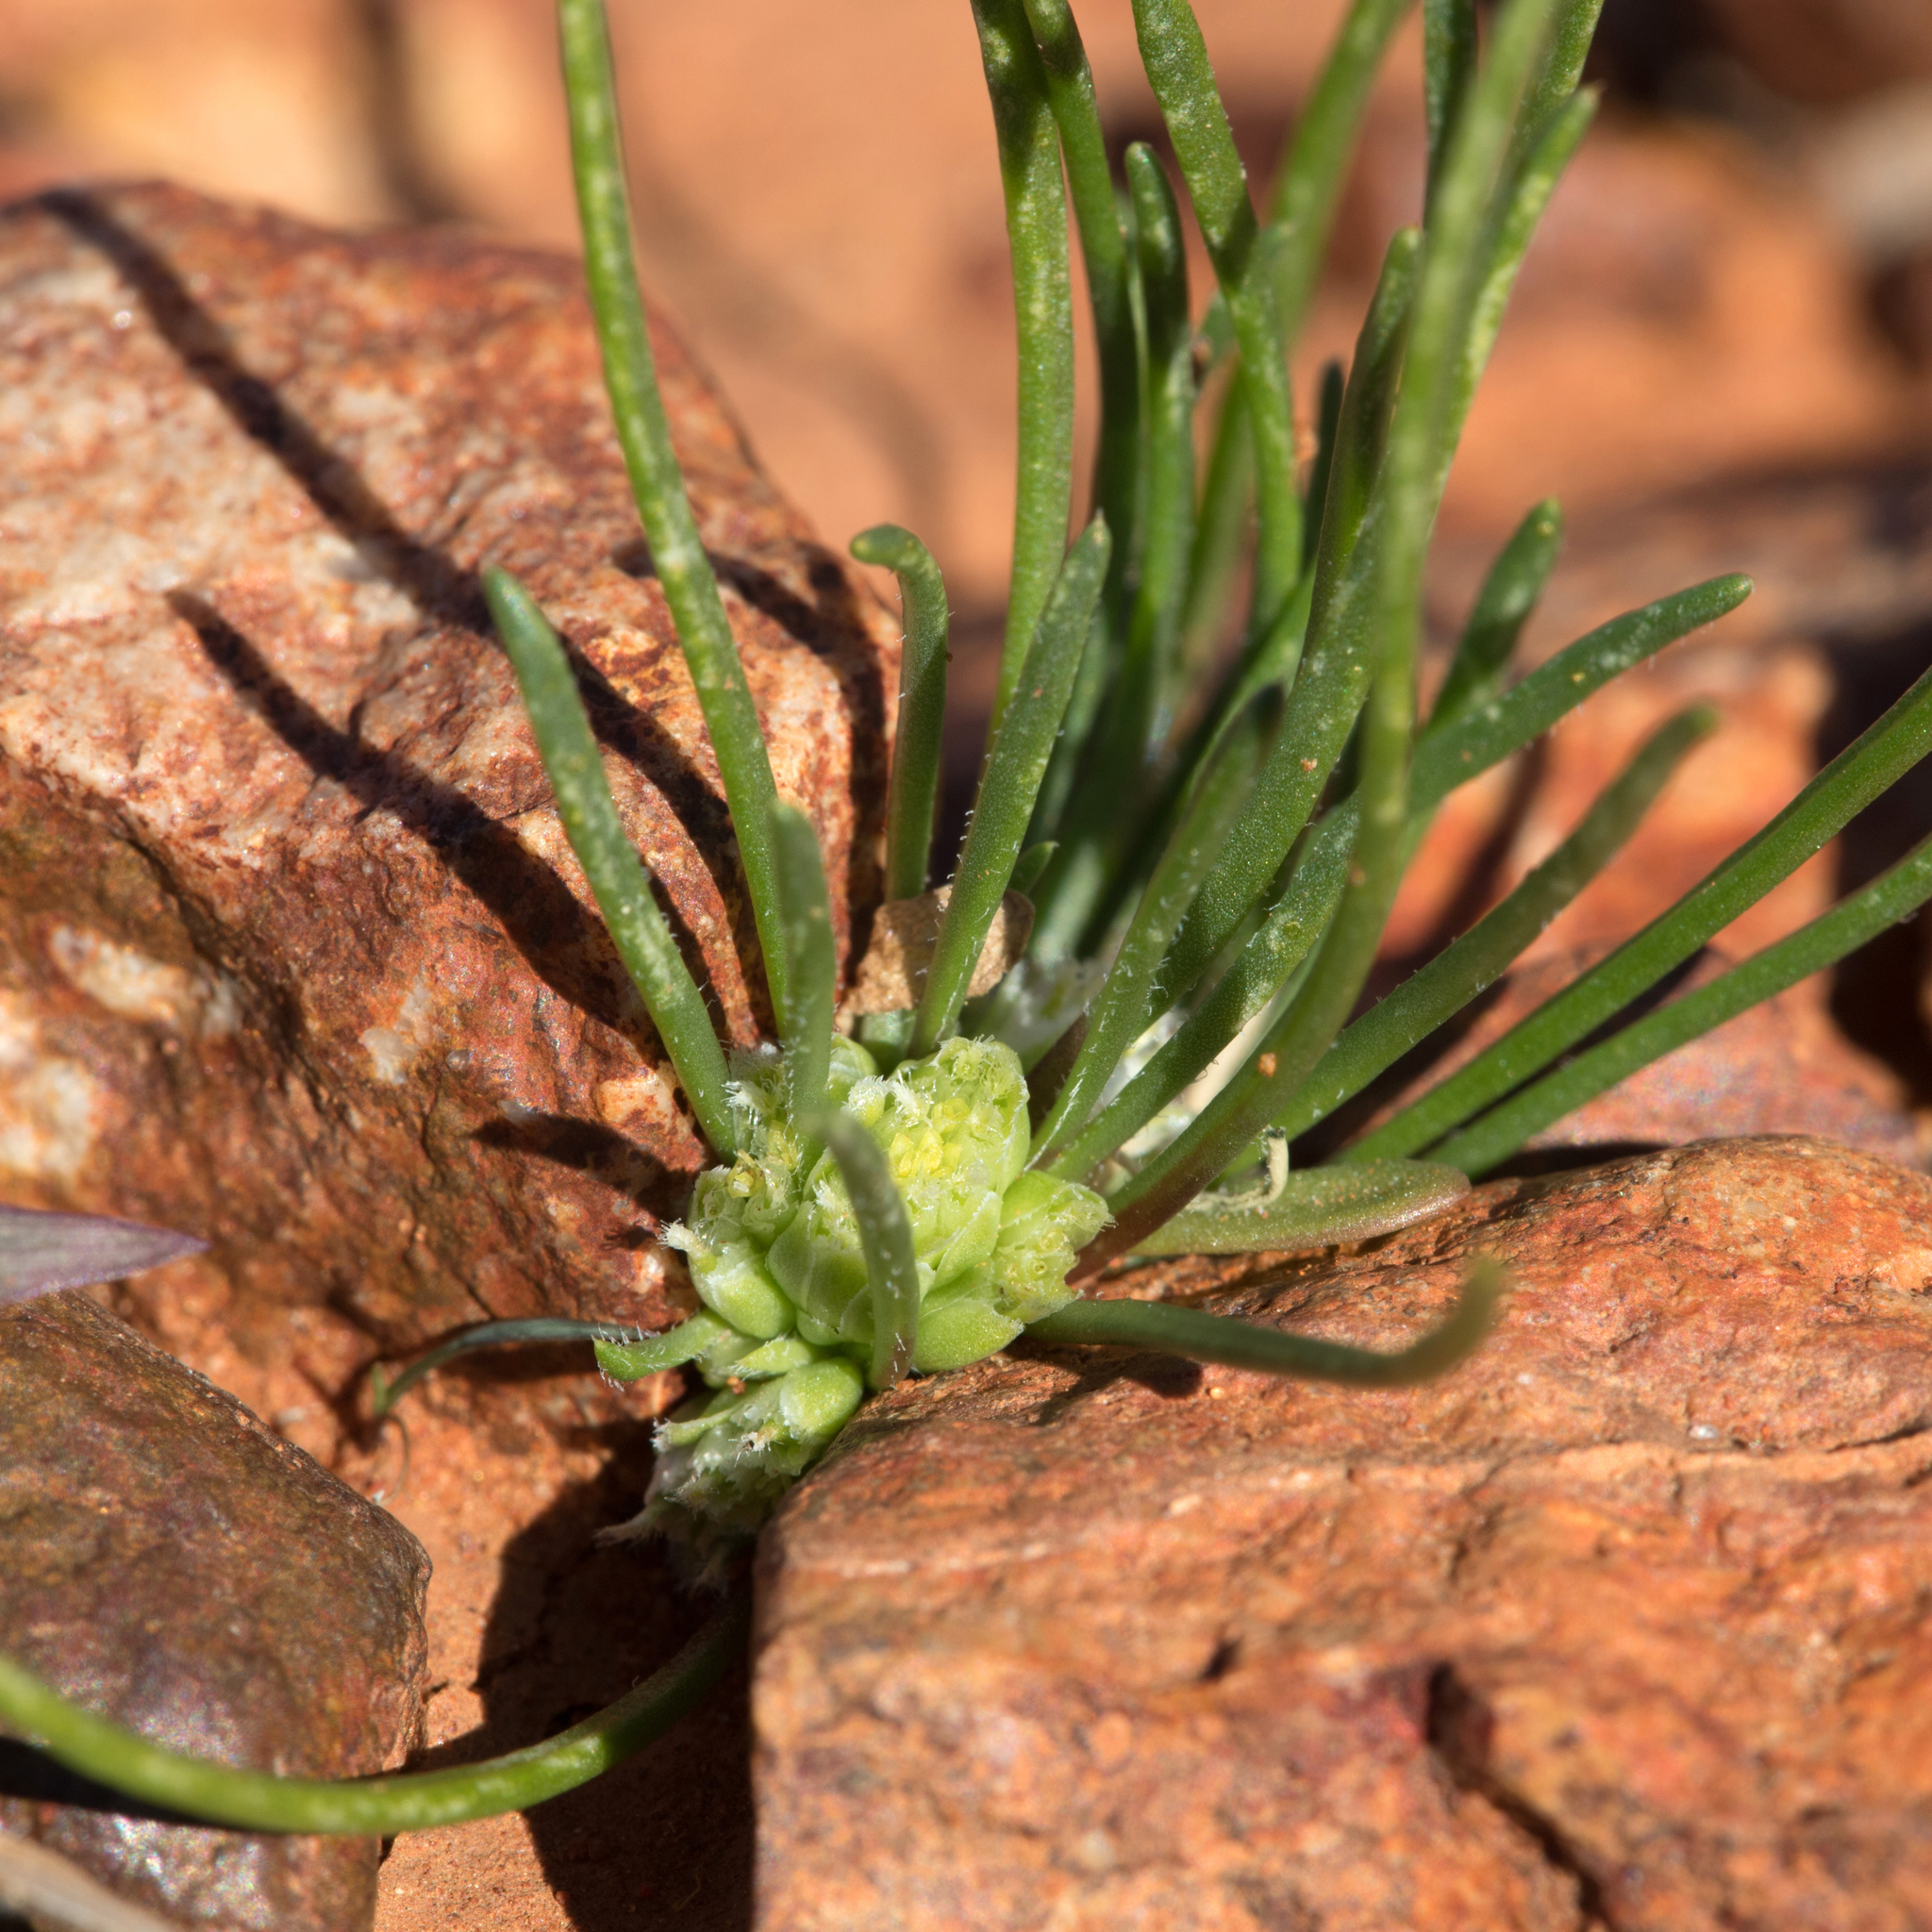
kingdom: Plantae
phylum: Tracheophyta
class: Magnoliopsida
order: Asterales
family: Asteraceae
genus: Isoetopsis
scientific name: Isoetopsis graminifolia
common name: Grass-cushion
